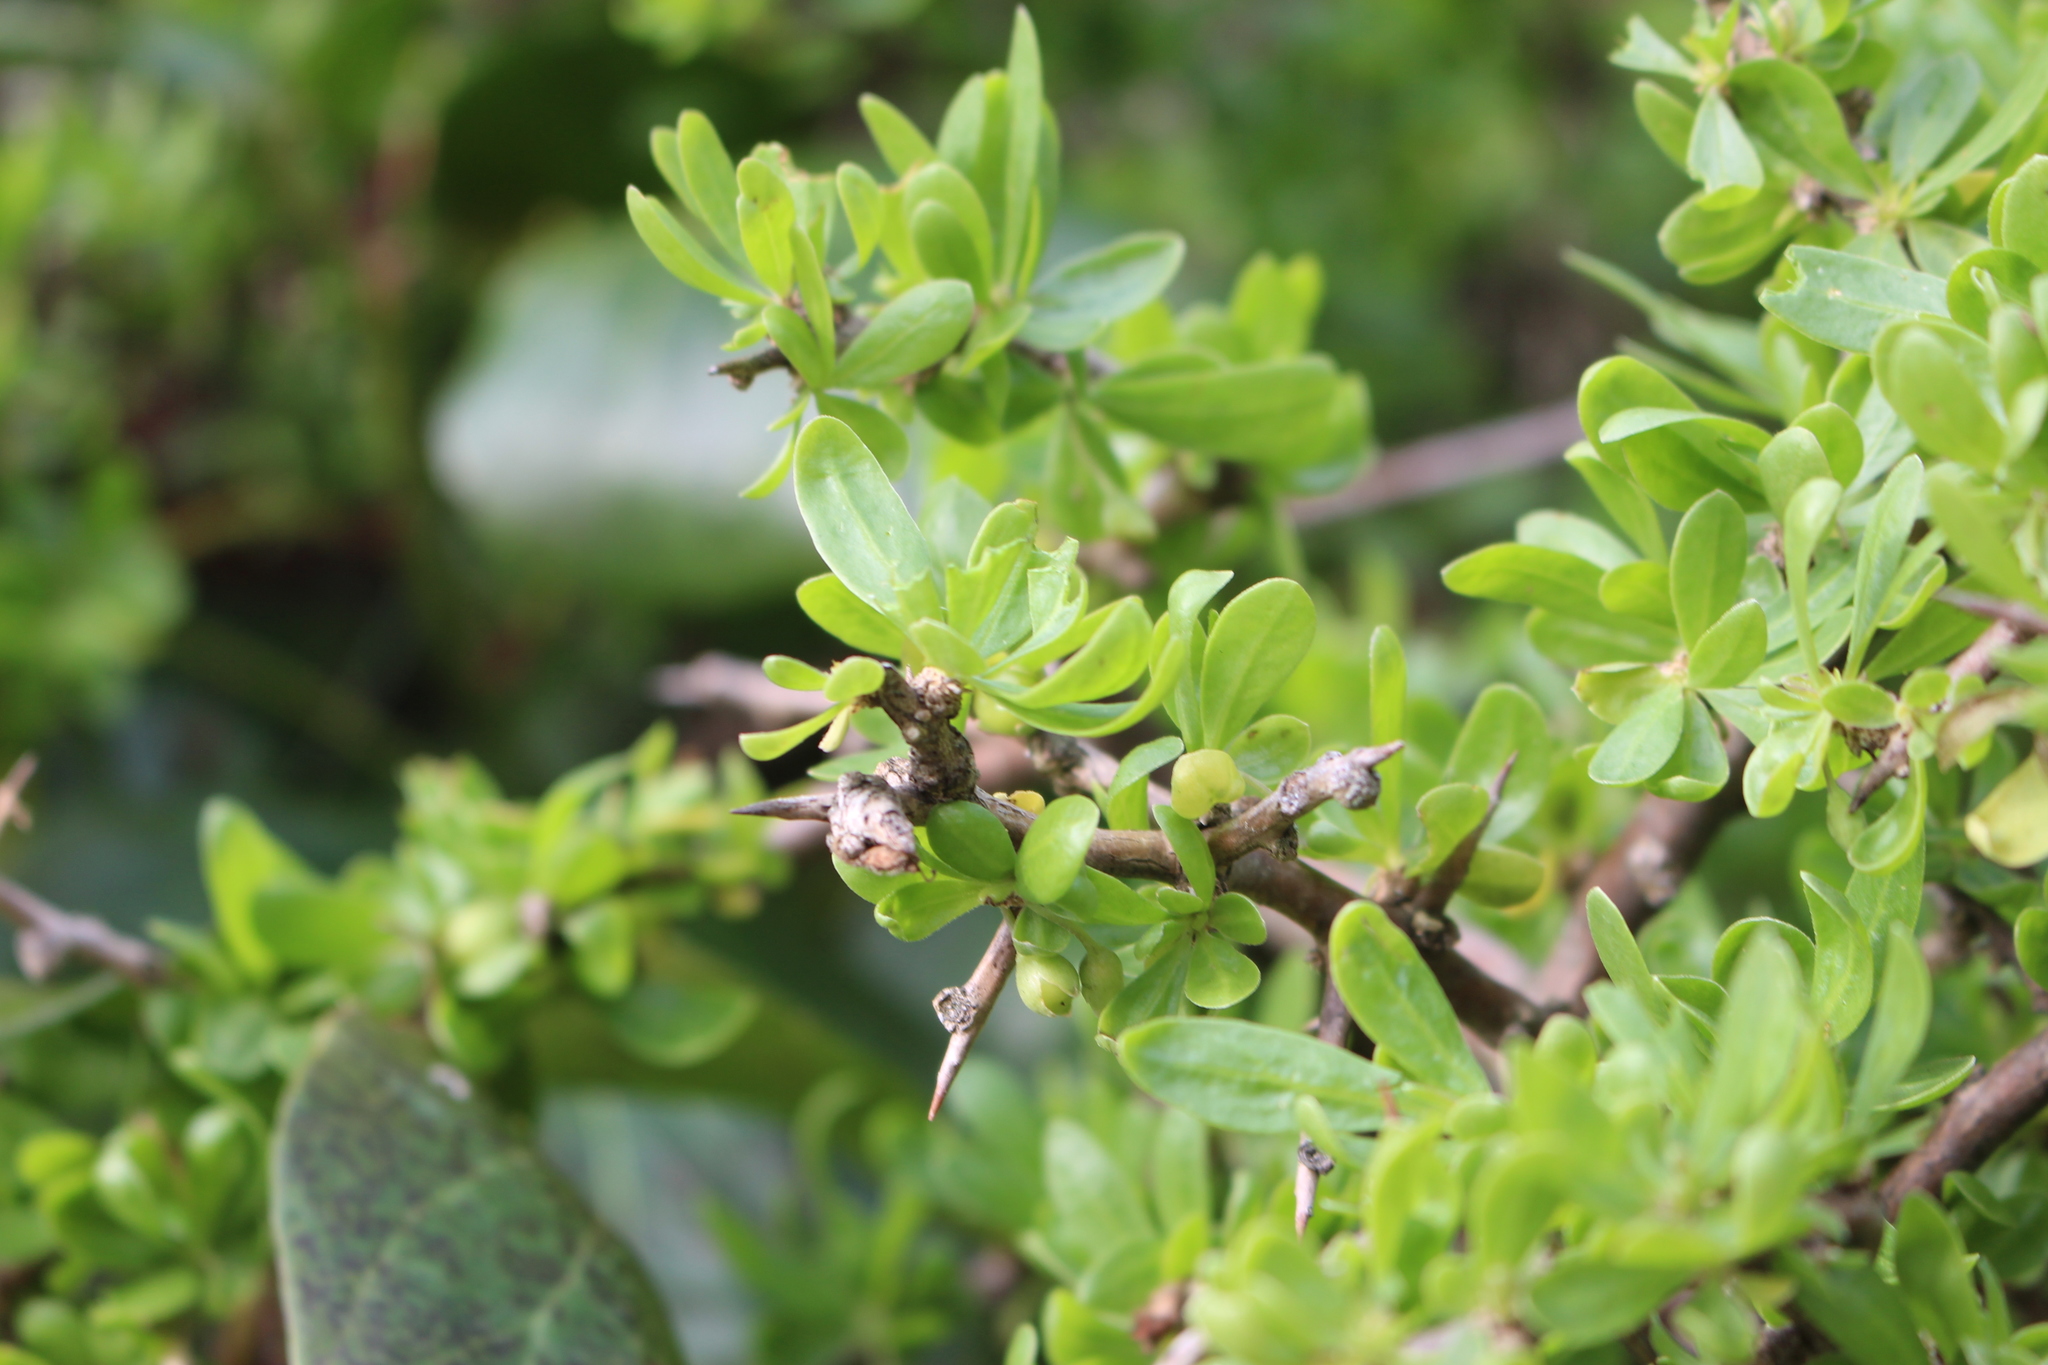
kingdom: Plantae
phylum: Tracheophyta
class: Magnoliopsida
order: Solanales
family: Solanaceae
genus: Lycium
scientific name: Lycium ferocissimum
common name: African boxthorn
